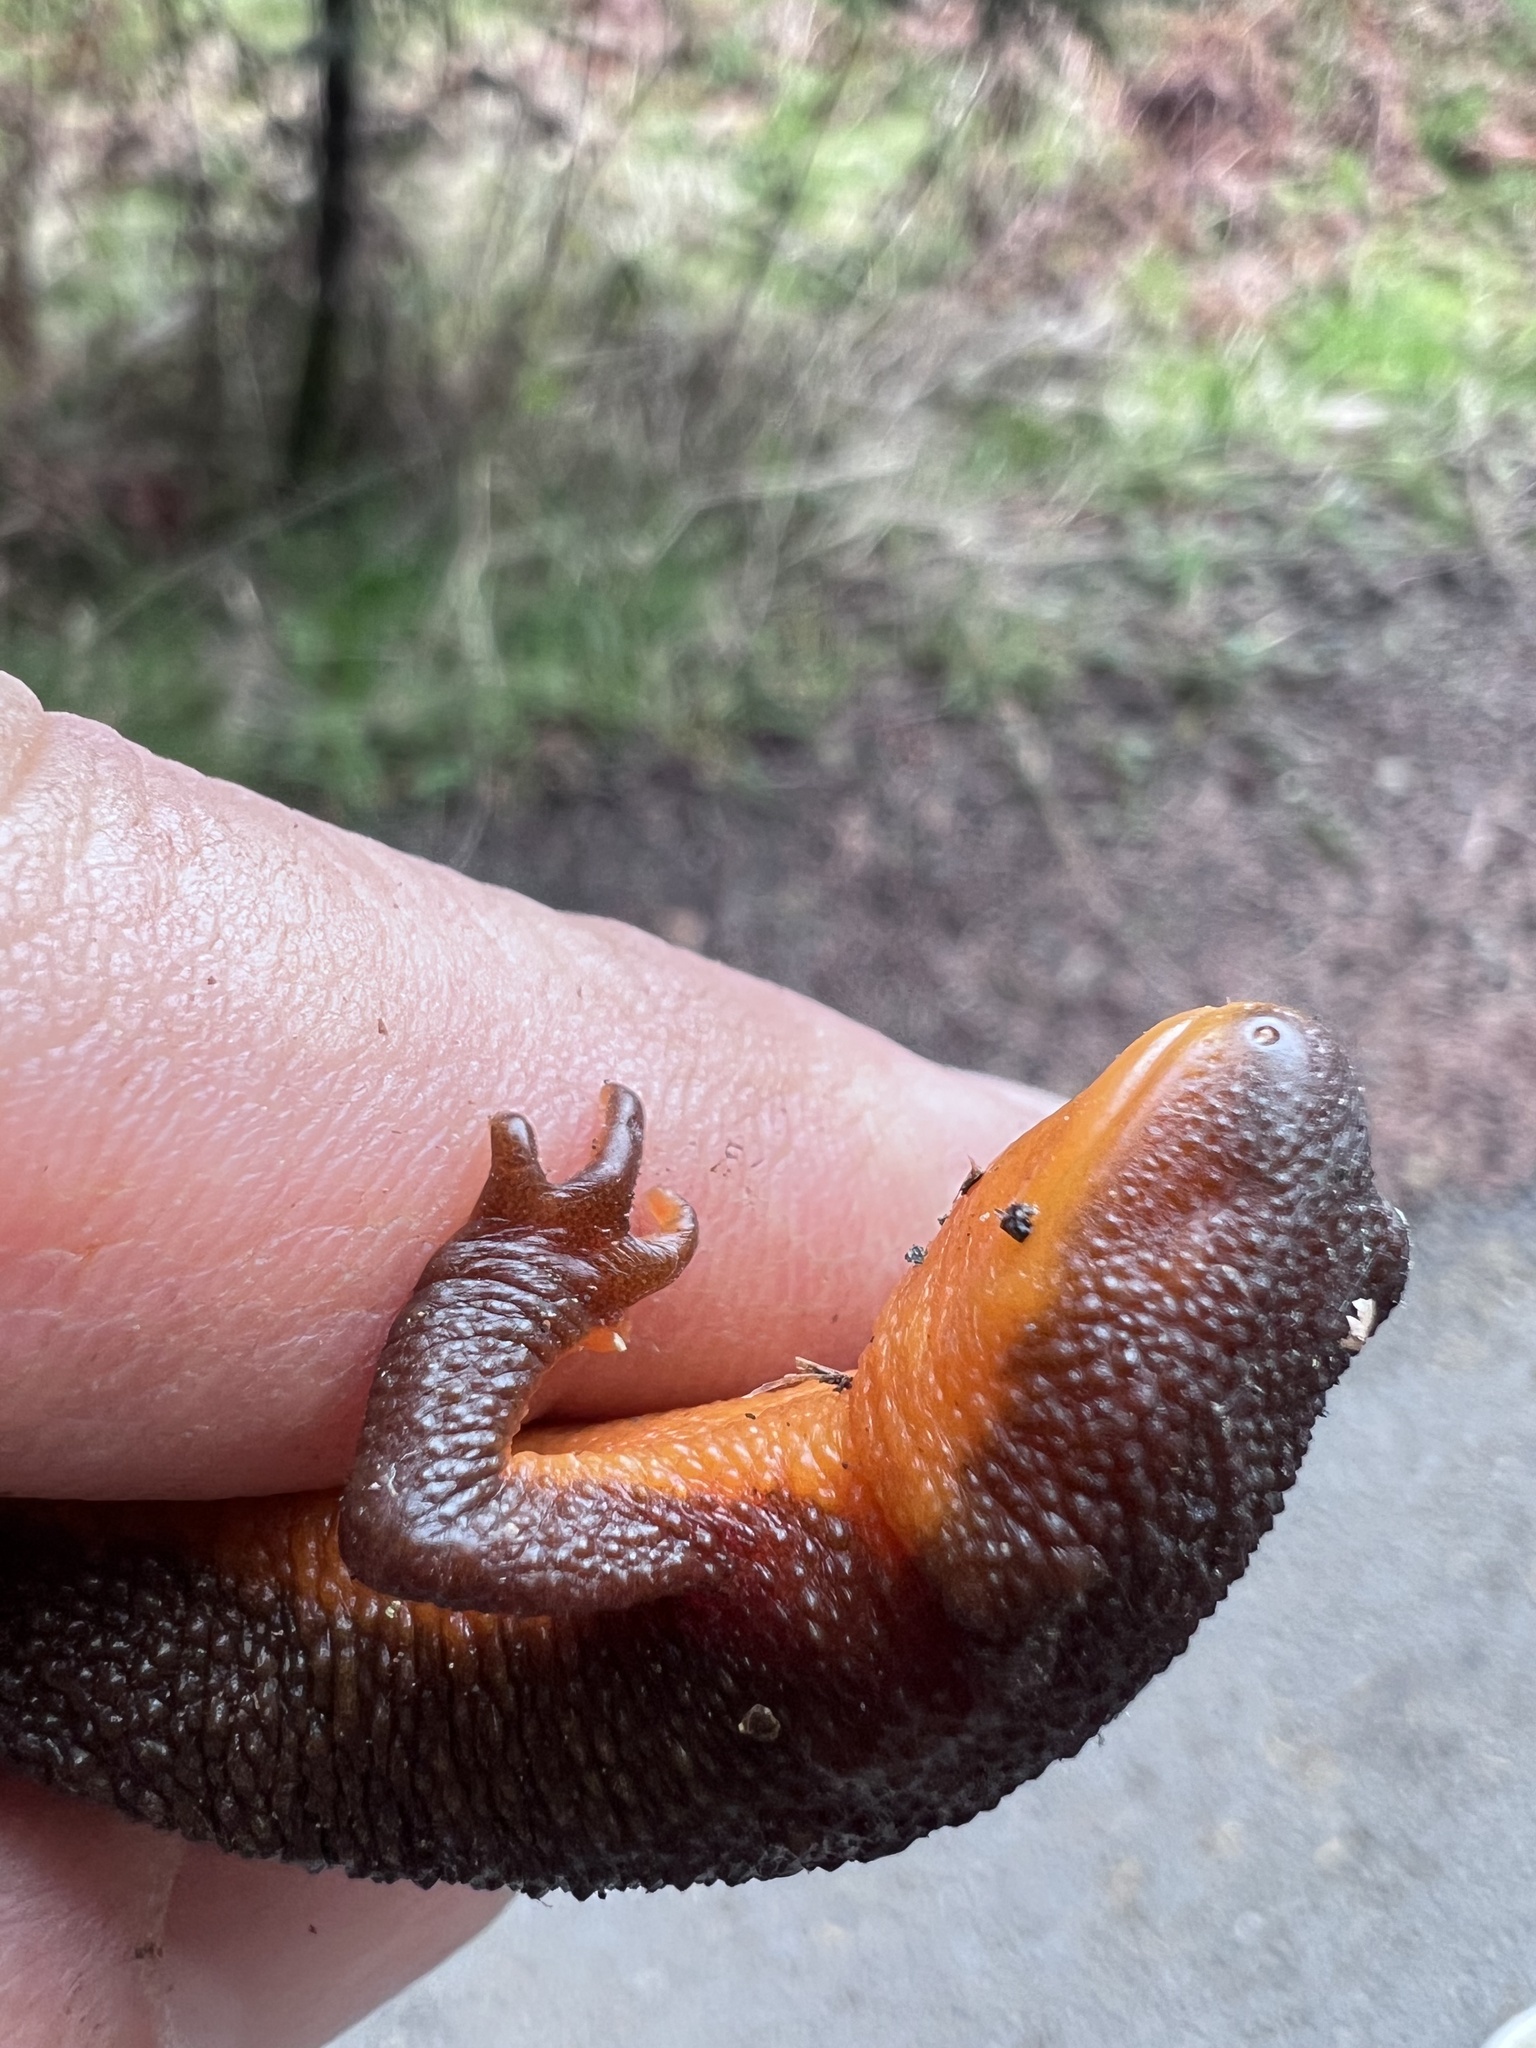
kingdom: Animalia
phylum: Chordata
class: Amphibia
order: Caudata
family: Salamandridae
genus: Taricha
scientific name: Taricha granulosa
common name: Roughskin newt
